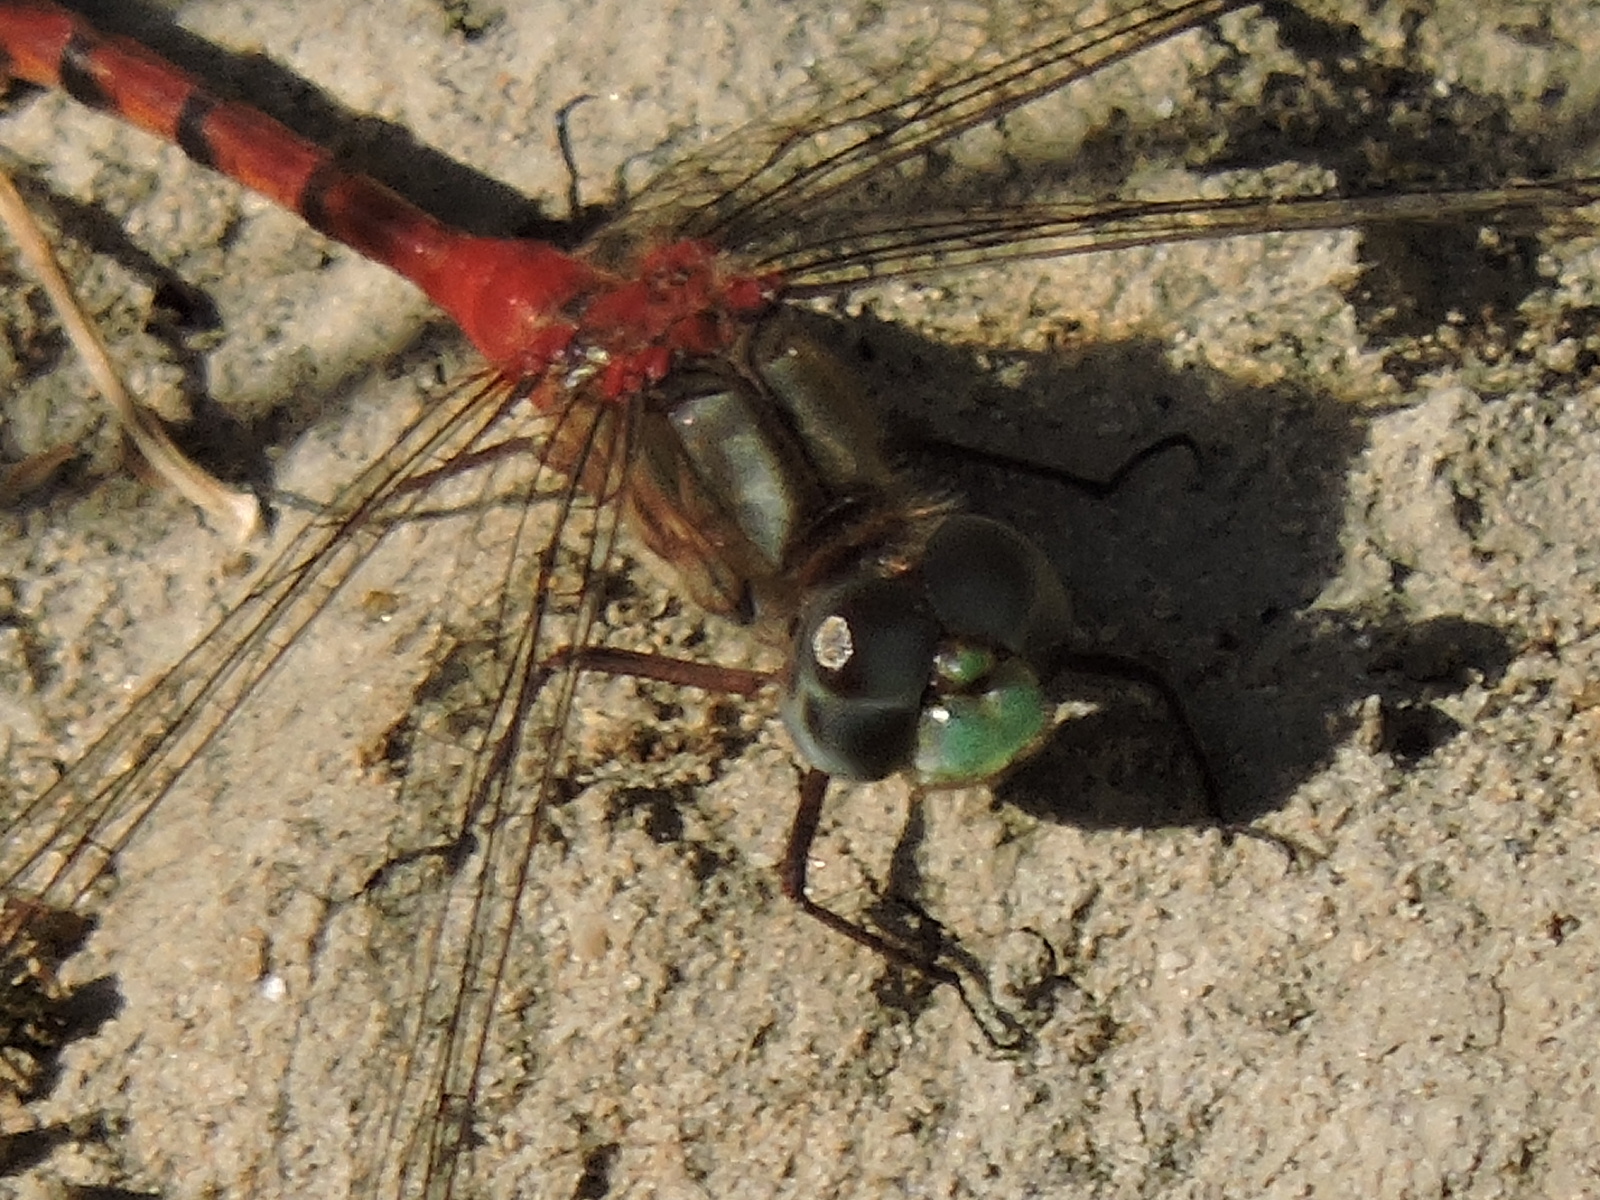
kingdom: Animalia
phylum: Arthropoda
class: Insecta
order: Odonata
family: Libellulidae
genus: Sympetrum
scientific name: Sympetrum ambiguum
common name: Blue-faced meadowhawk
